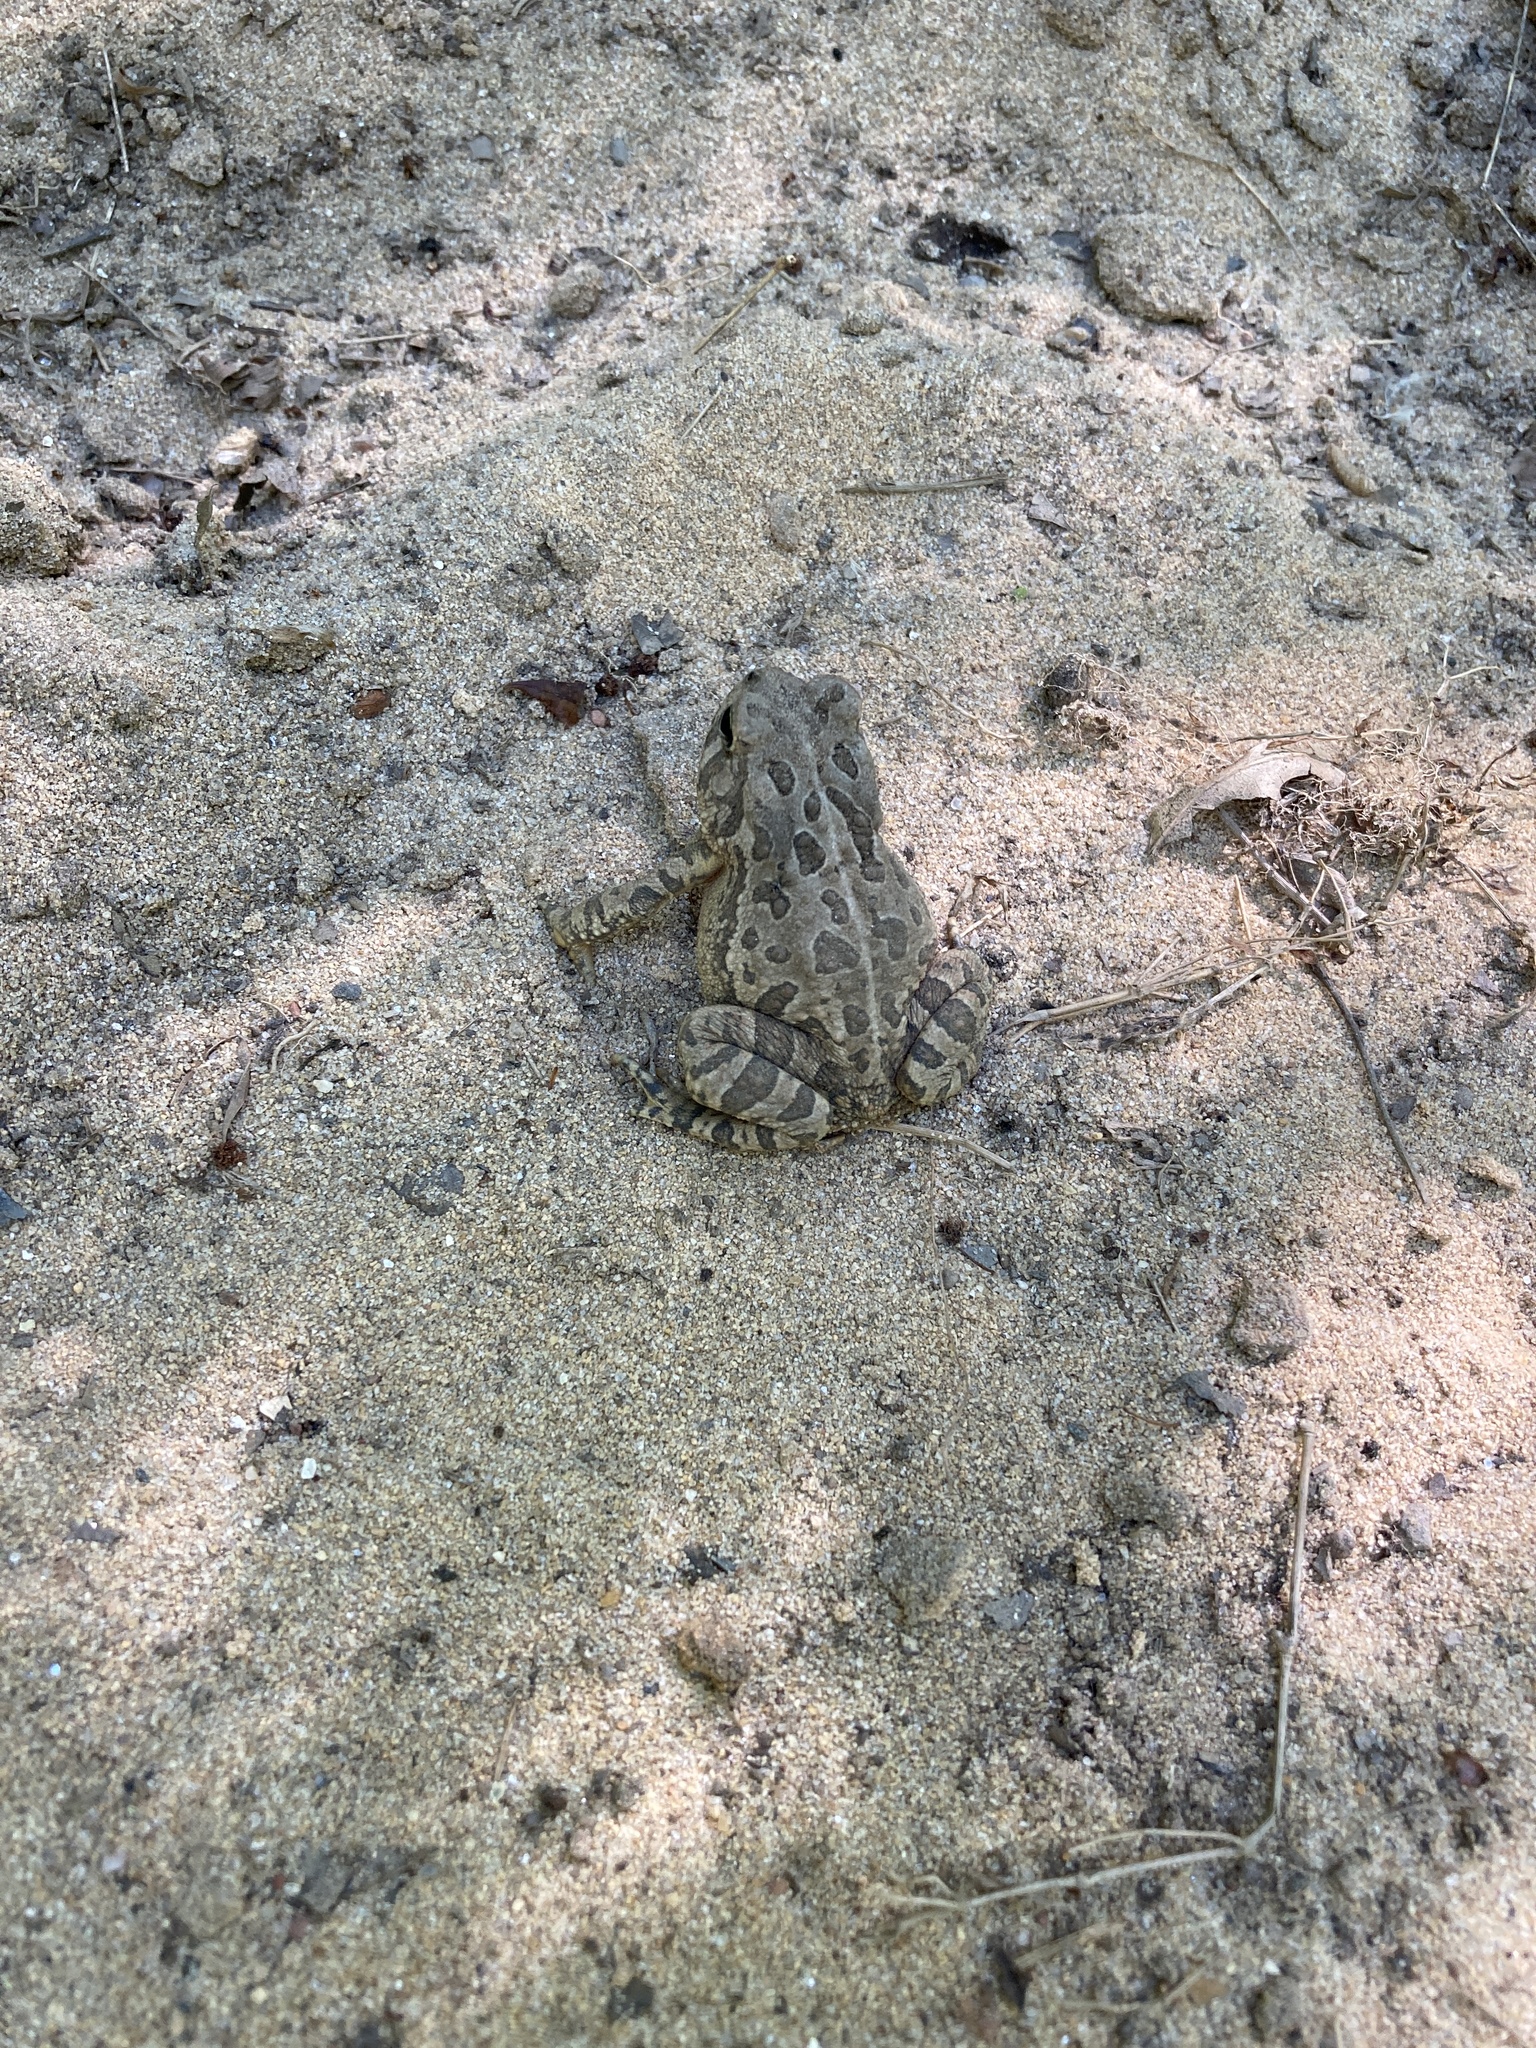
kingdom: Animalia
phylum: Chordata
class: Amphibia
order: Anura
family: Bufonidae
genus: Anaxyrus
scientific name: Anaxyrus fowleri
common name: Fowler's toad
